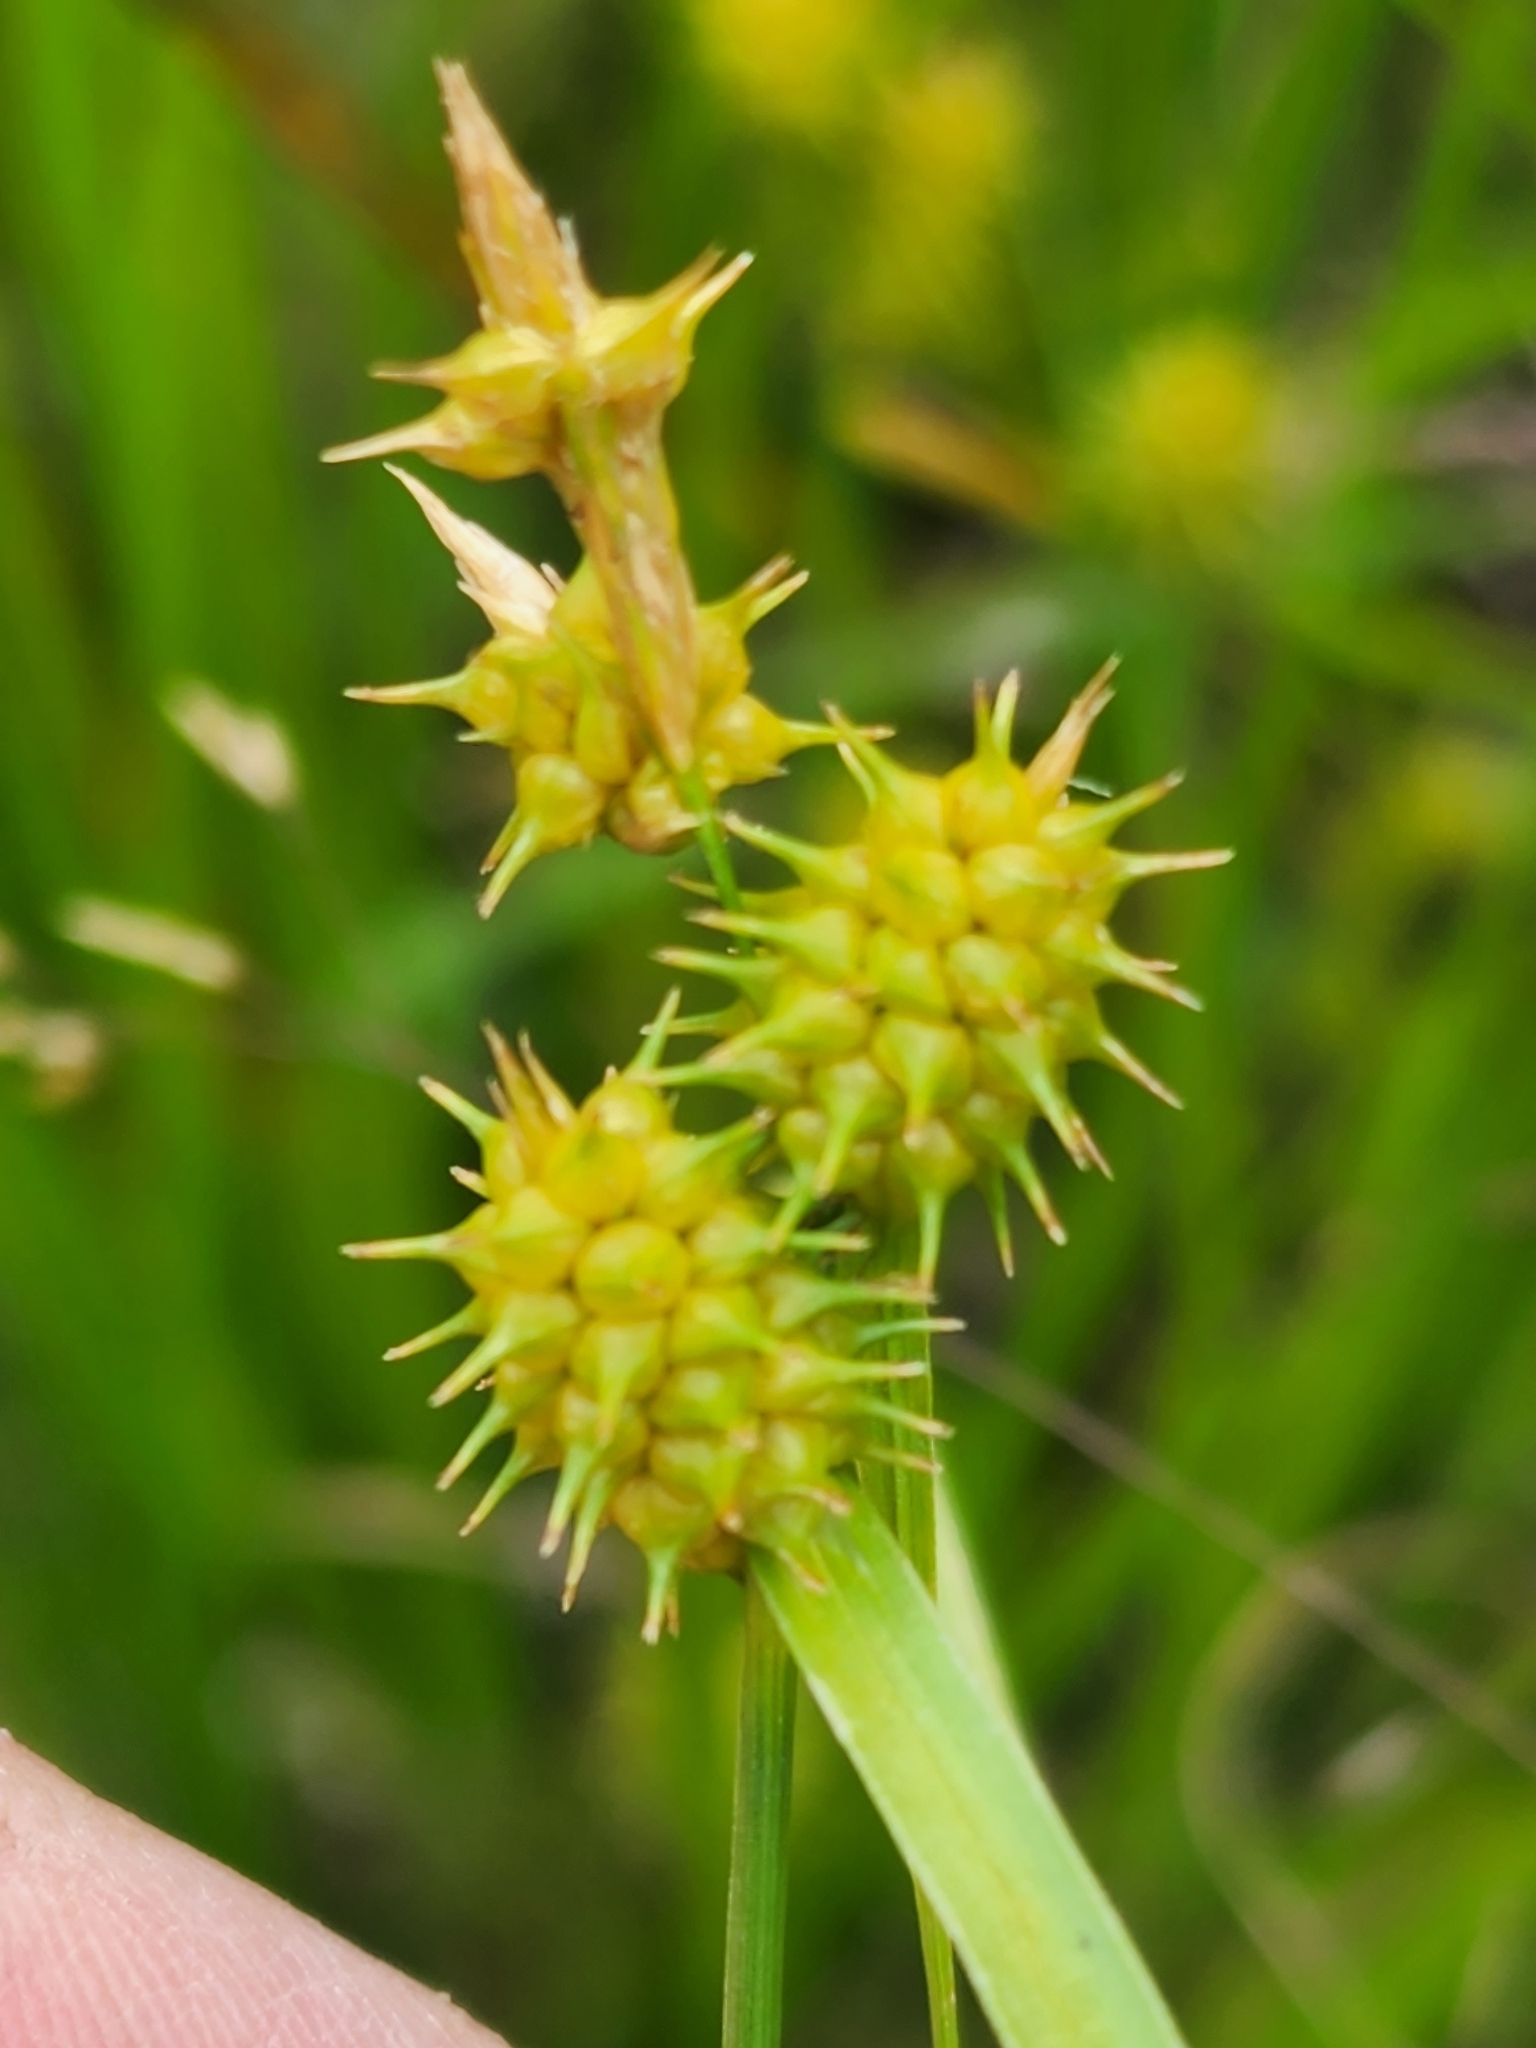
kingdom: Plantae
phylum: Tracheophyta
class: Liliopsida
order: Poales
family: Cyperaceae
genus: Carex
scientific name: Carex cryptolepis
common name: Northeastern sedge
